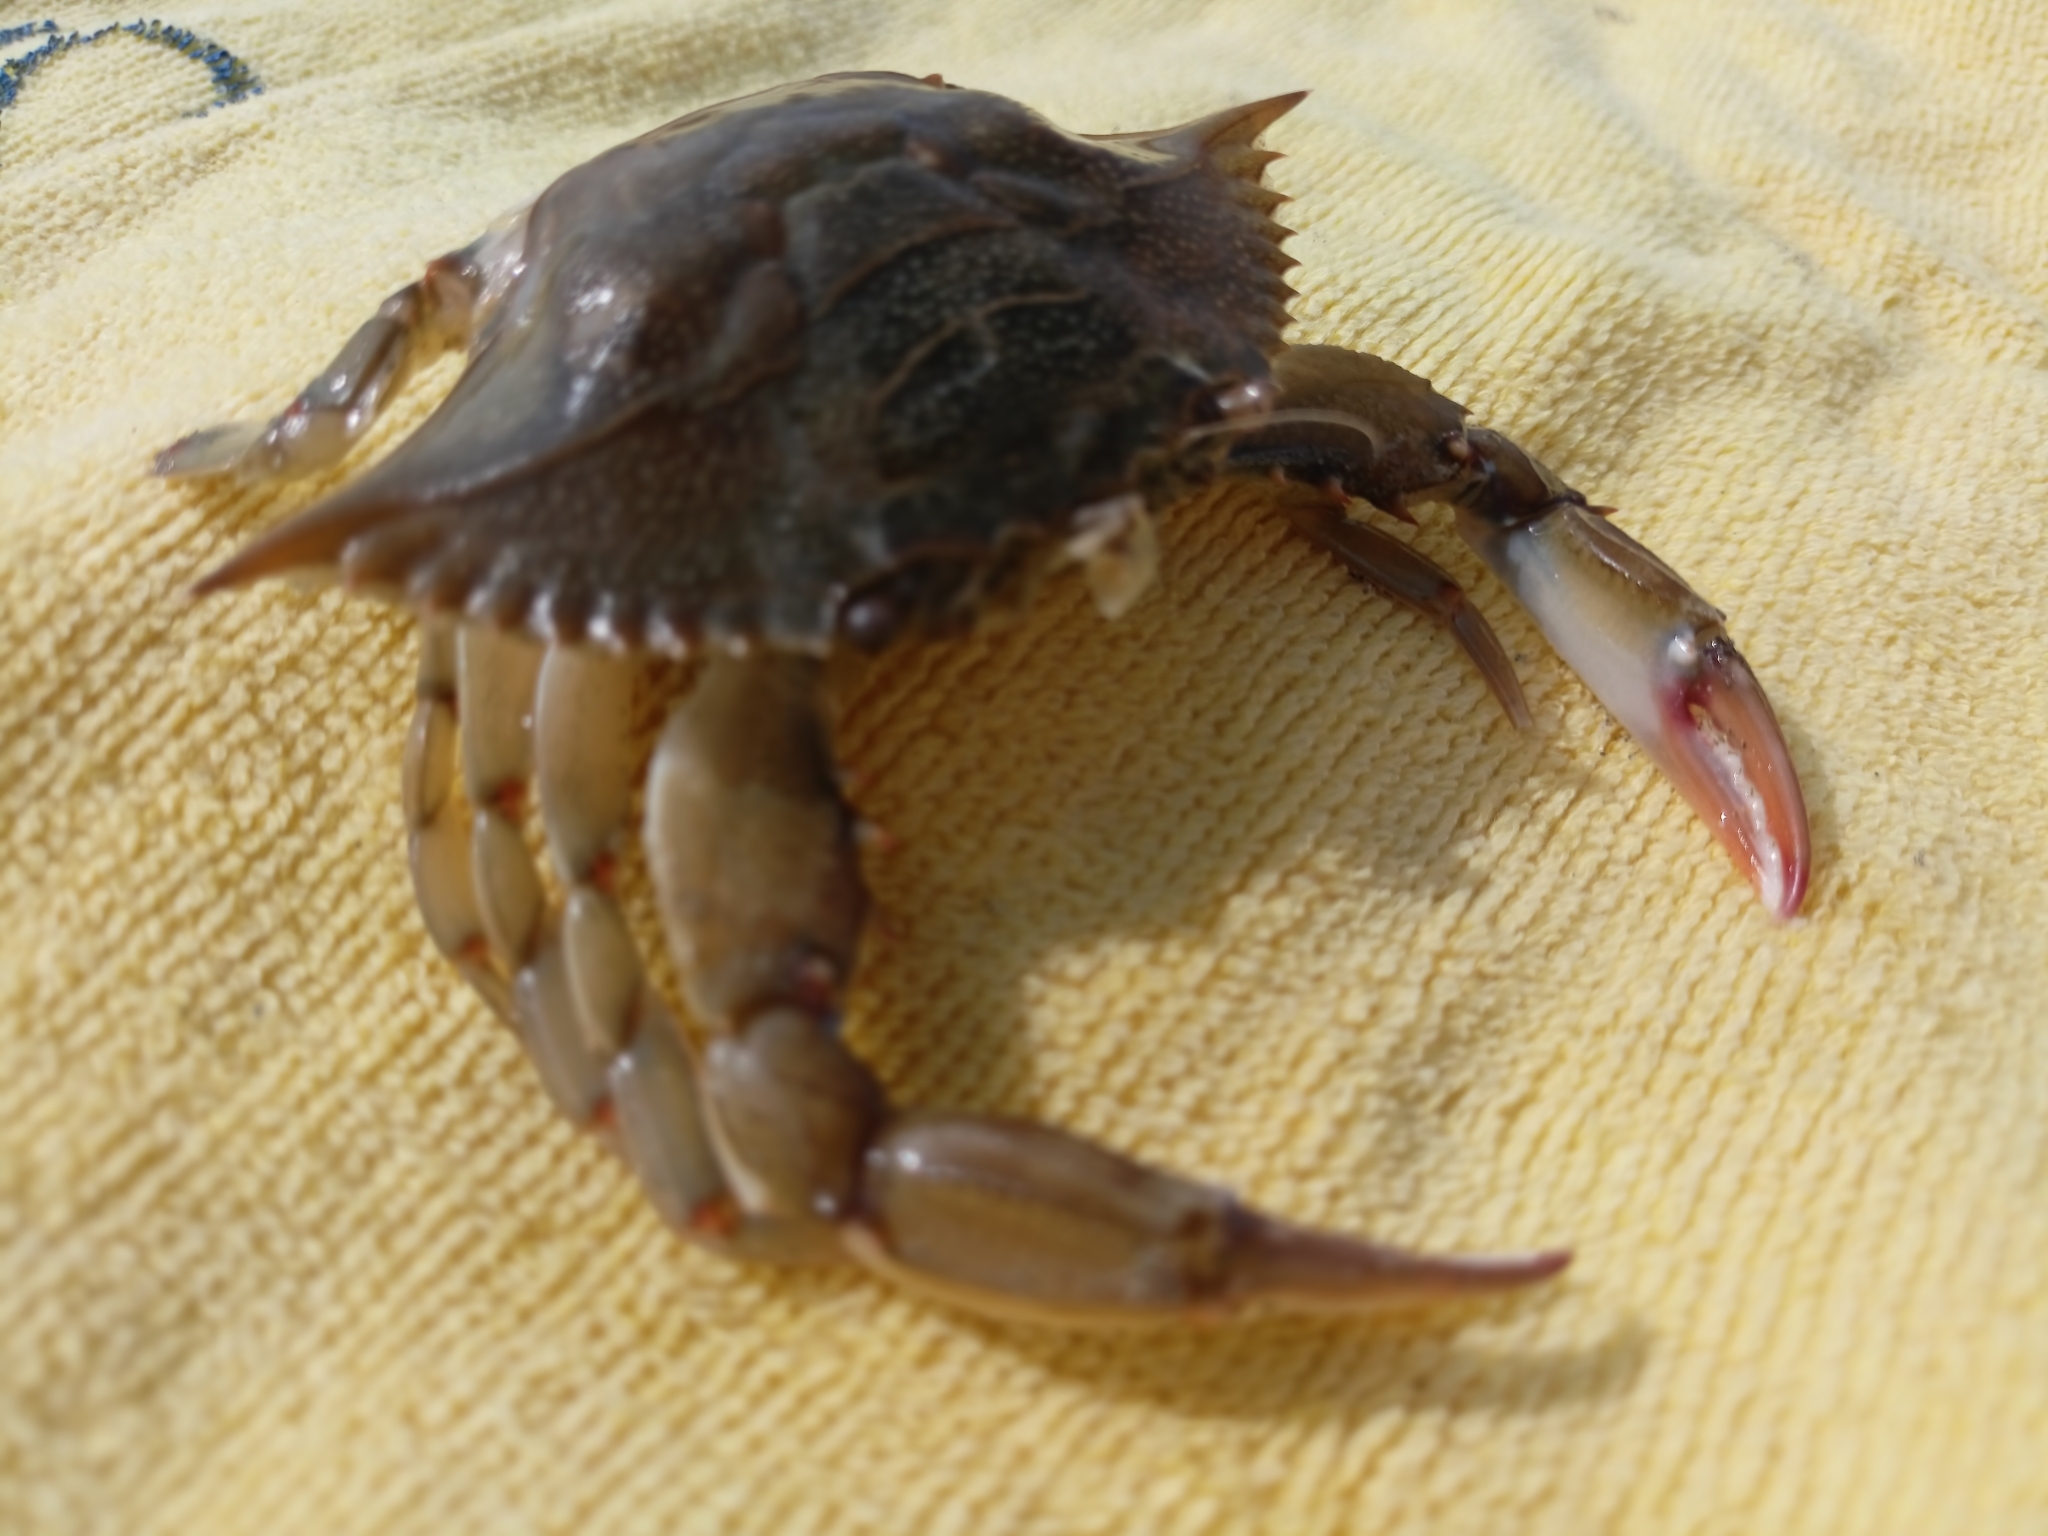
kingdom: Animalia
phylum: Arthropoda
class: Malacostraca
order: Decapoda
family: Portunidae
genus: Callinectes
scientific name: Callinectes sapidus
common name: Blue crab
